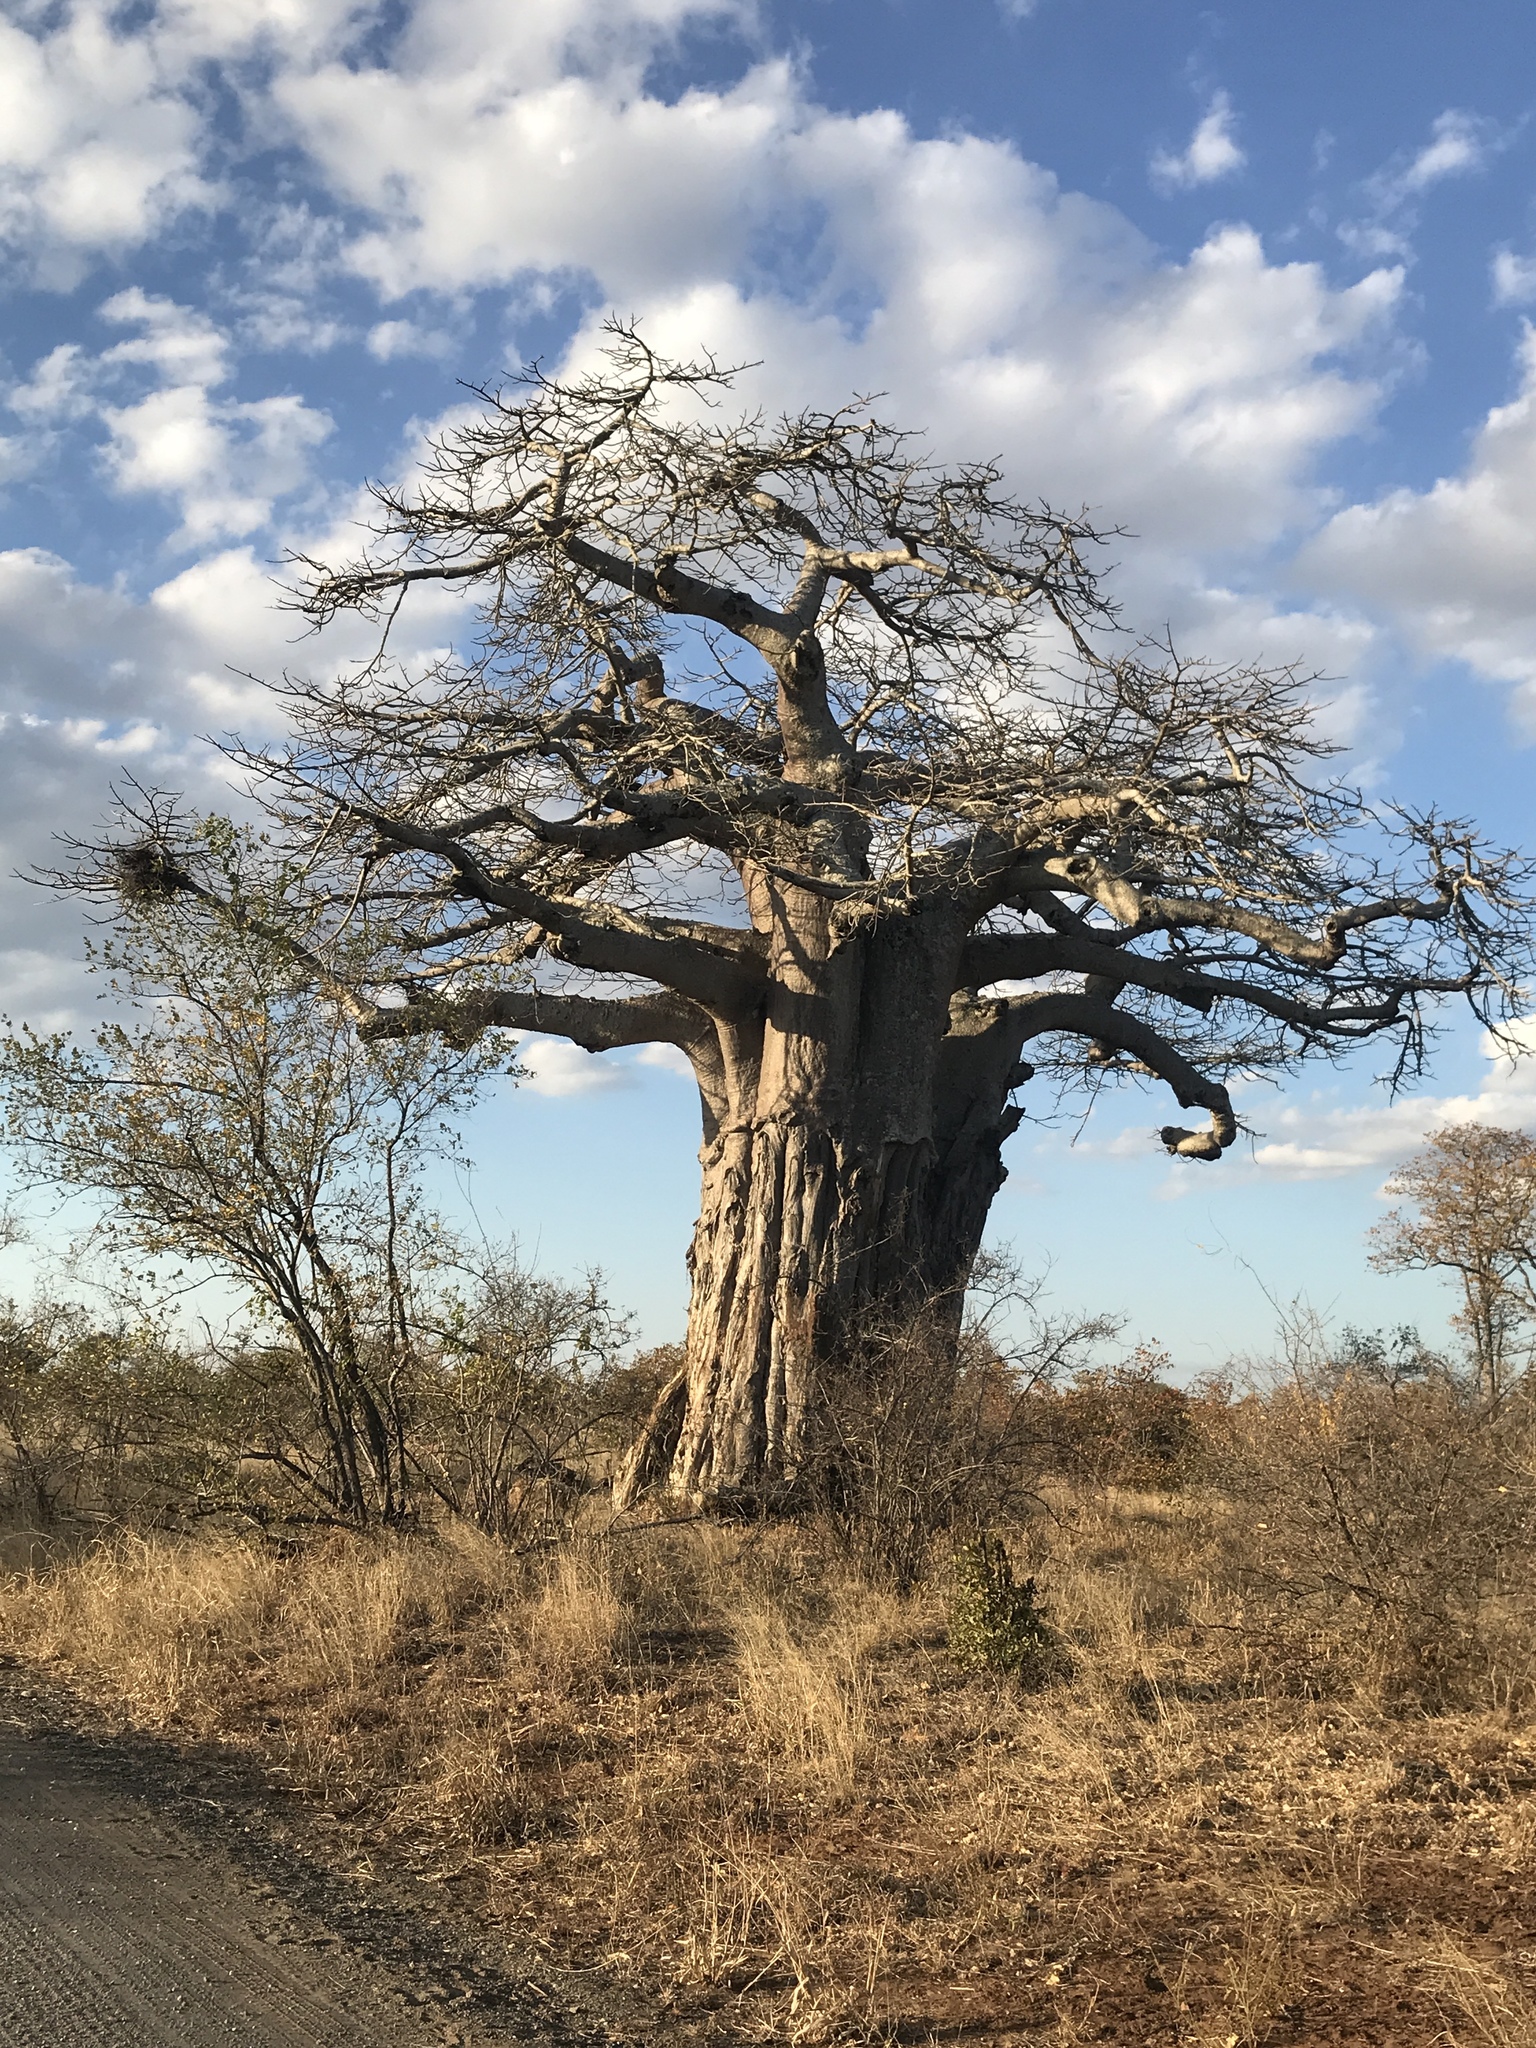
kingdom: Plantae
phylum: Tracheophyta
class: Magnoliopsida
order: Malvales
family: Malvaceae
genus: Adansonia
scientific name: Adansonia digitata
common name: Dead-rat-tree
